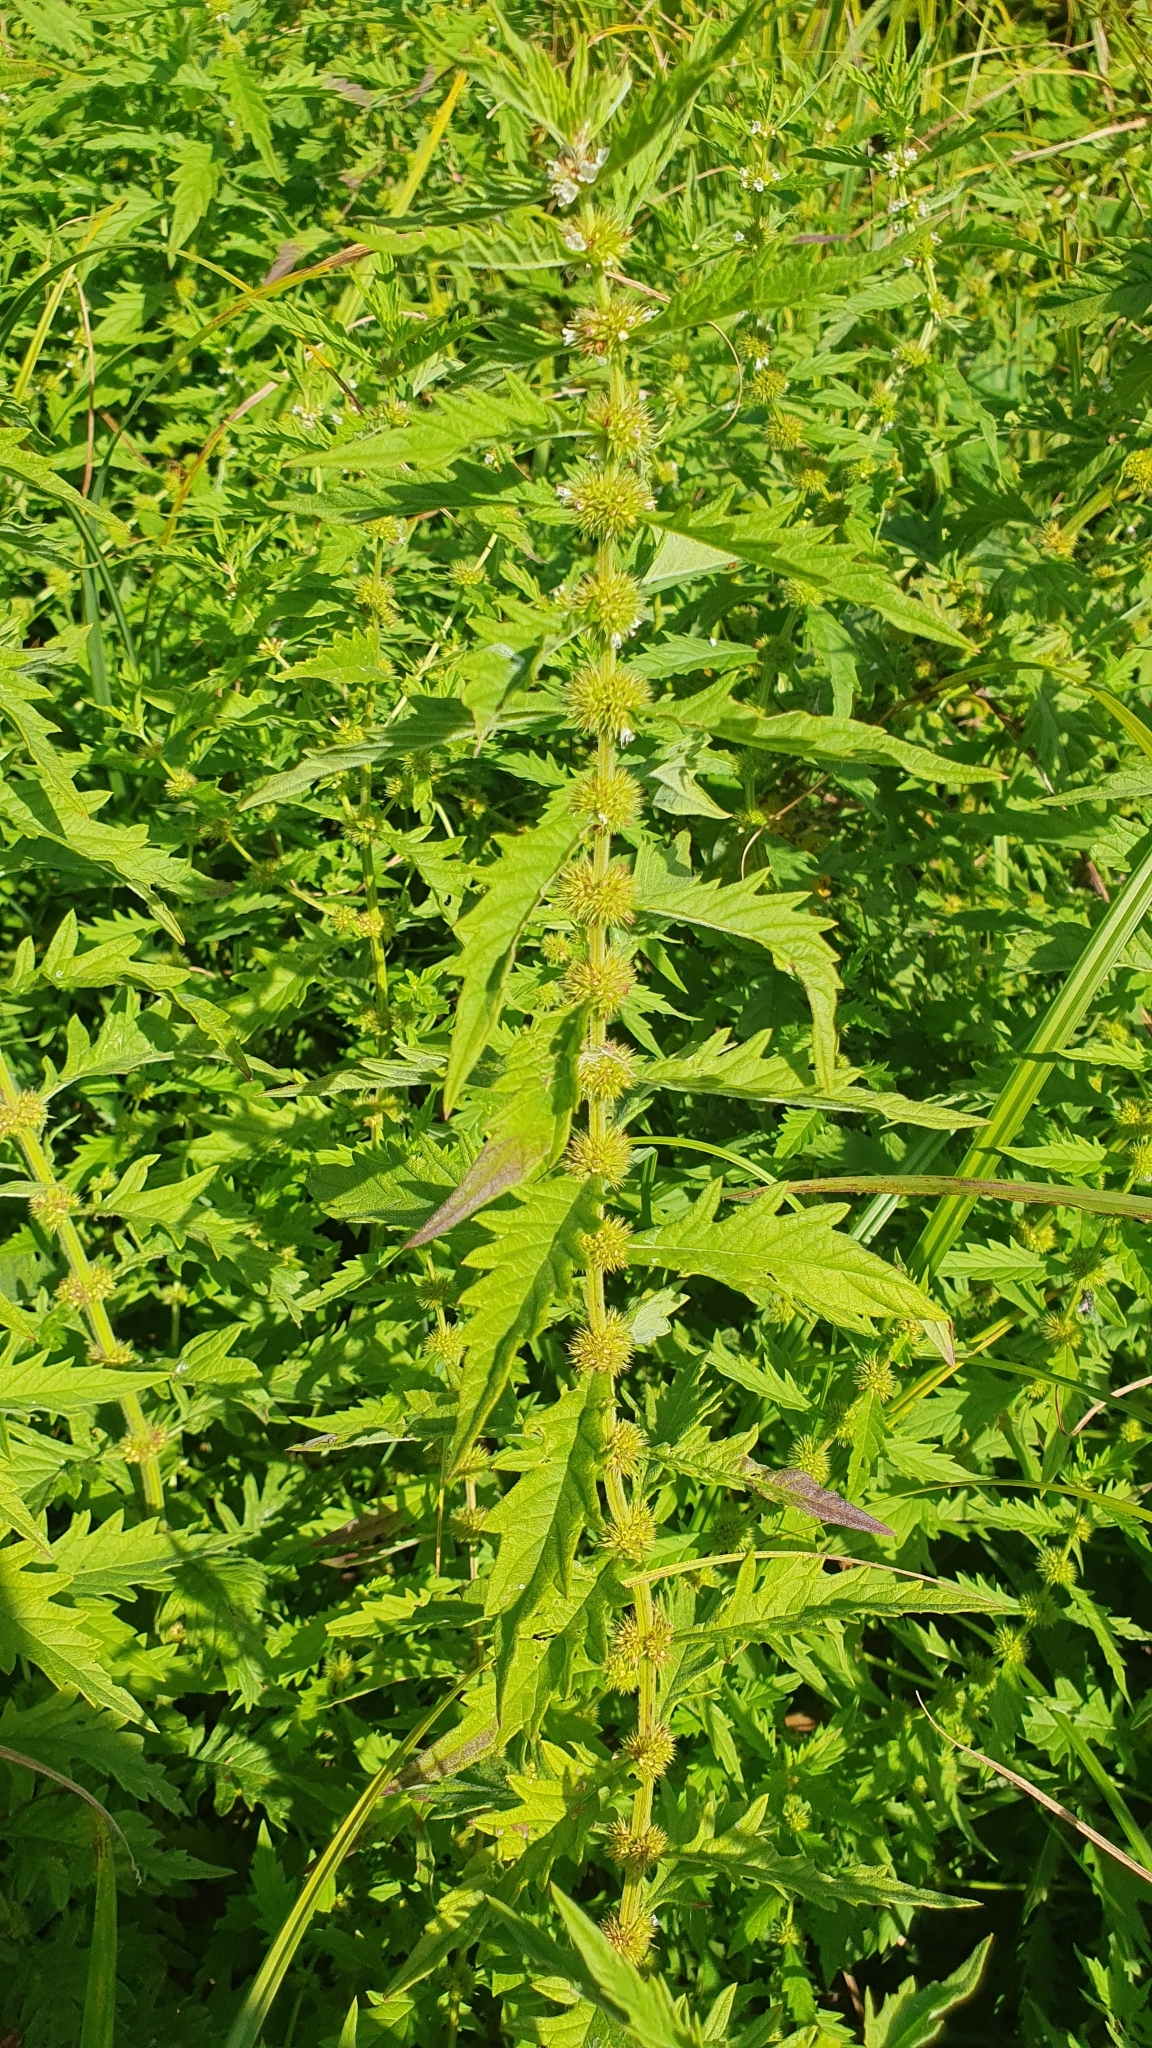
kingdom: Plantae
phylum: Tracheophyta
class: Magnoliopsida
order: Lamiales
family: Lamiaceae
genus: Lycopus
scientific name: Lycopus exaltatus
